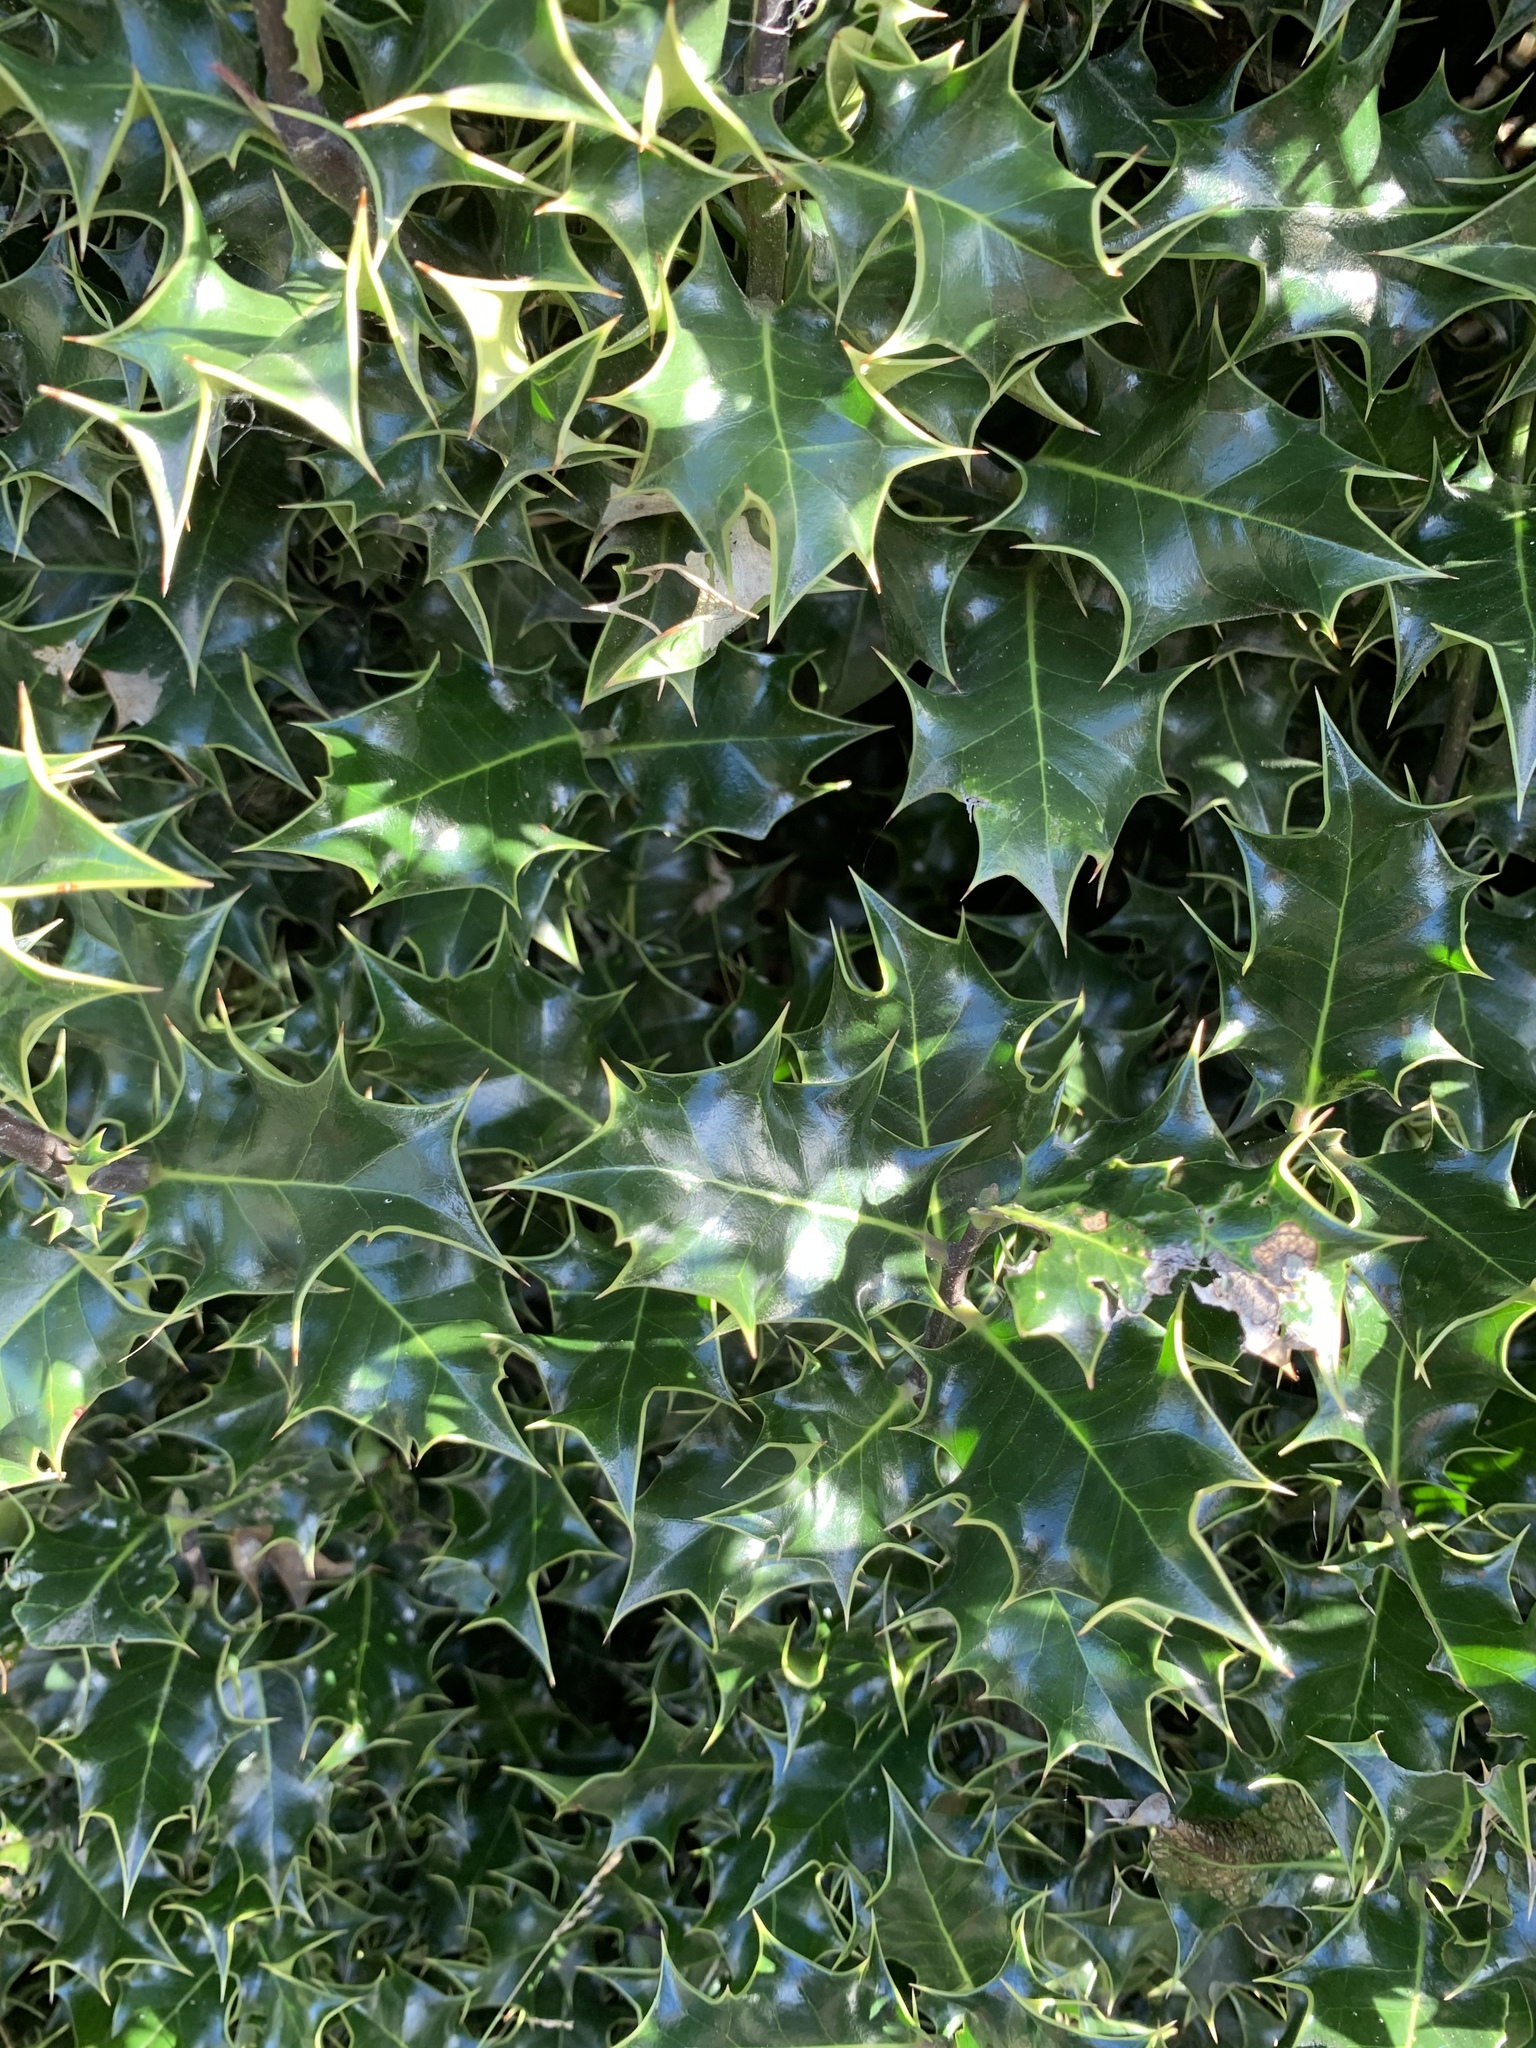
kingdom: Plantae
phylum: Tracheophyta
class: Magnoliopsida
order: Aquifoliales
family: Aquifoliaceae
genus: Ilex
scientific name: Ilex aquifolium
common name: English holly
